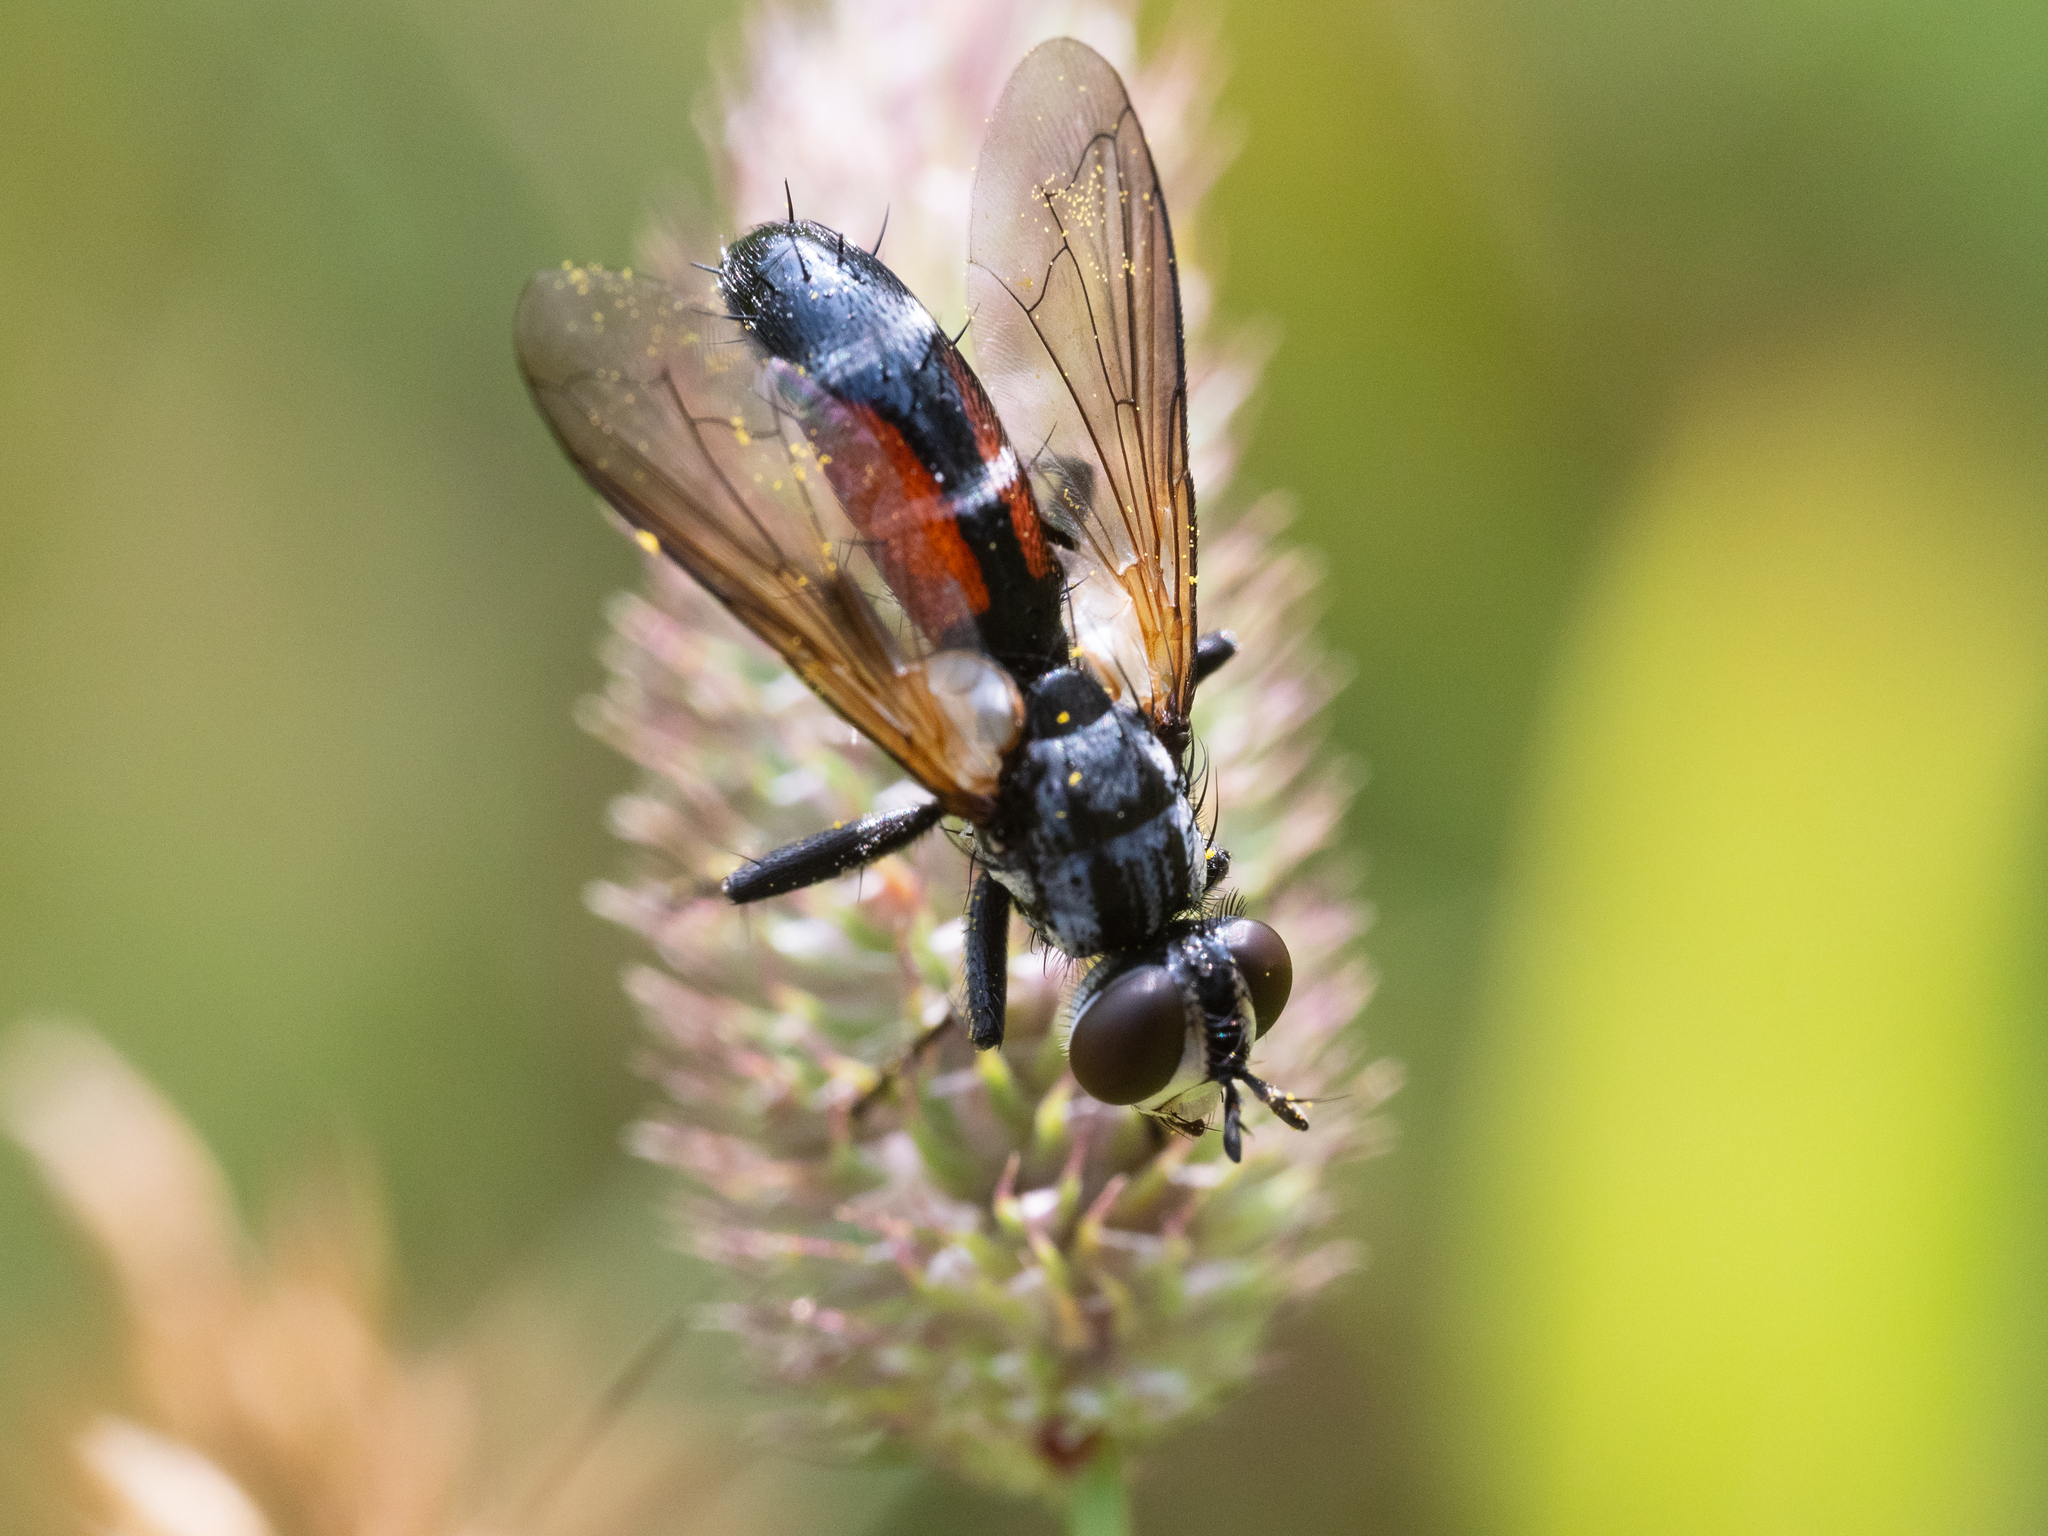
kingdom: Animalia
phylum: Arthropoda
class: Insecta
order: Diptera
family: Tachinidae
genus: Cylindromyia
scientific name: Cylindromyia auriceps
